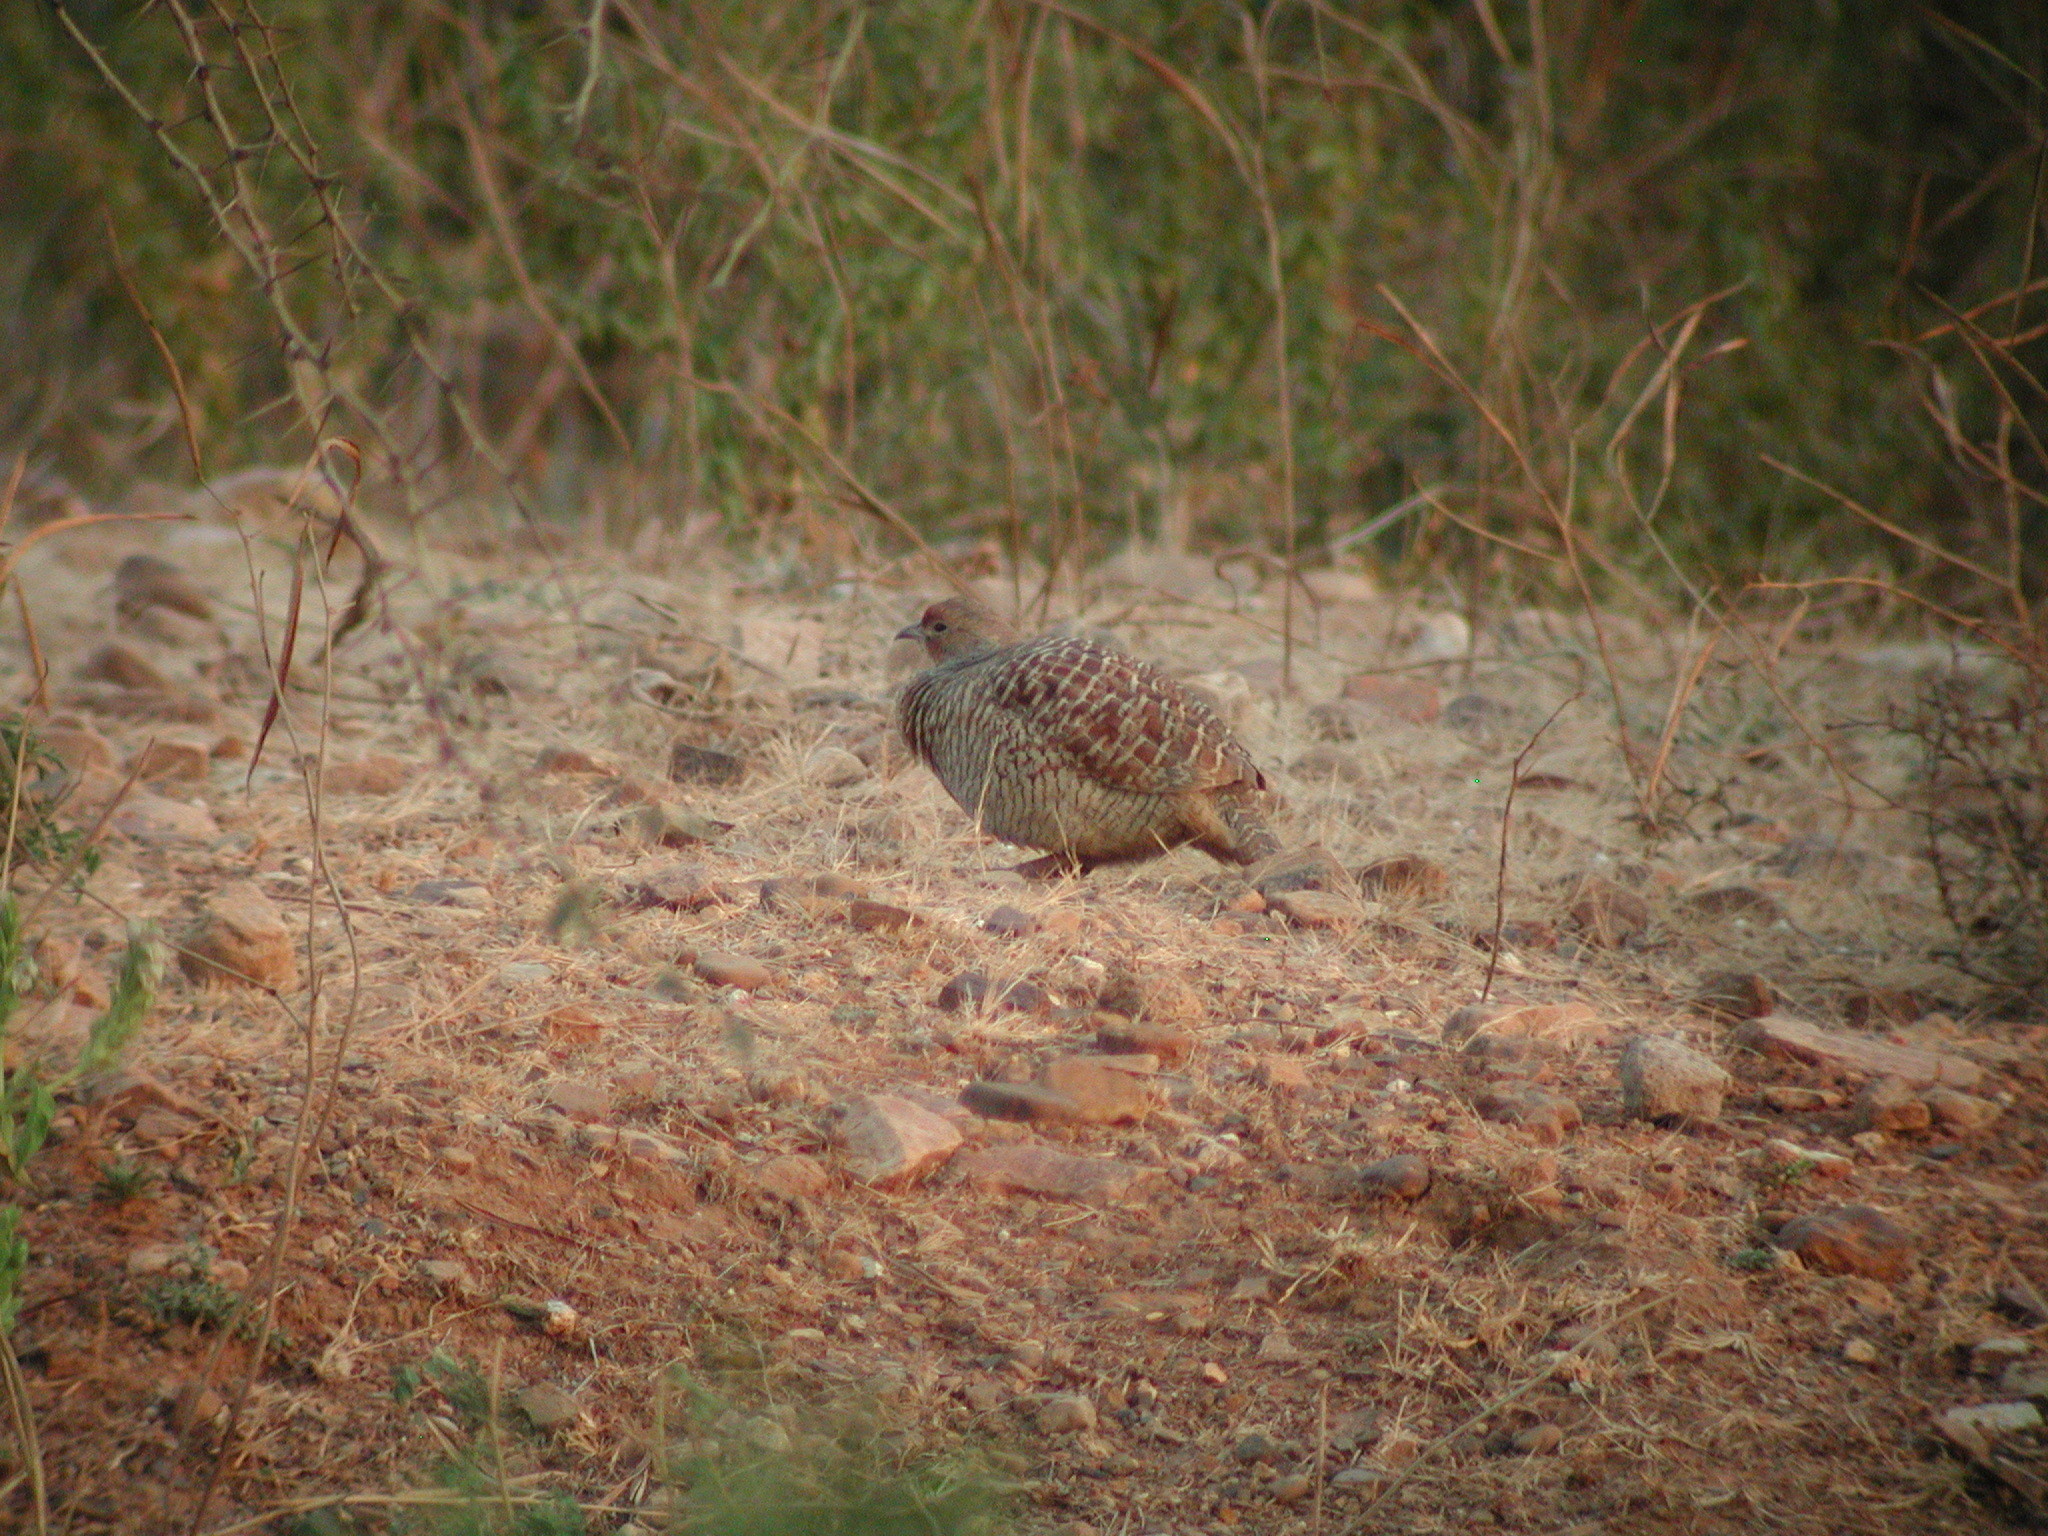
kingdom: Animalia
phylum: Chordata
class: Aves
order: Galliformes
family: Phasianidae
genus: Ortygornis
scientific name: Ortygornis pondicerianus
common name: Grey francolin
